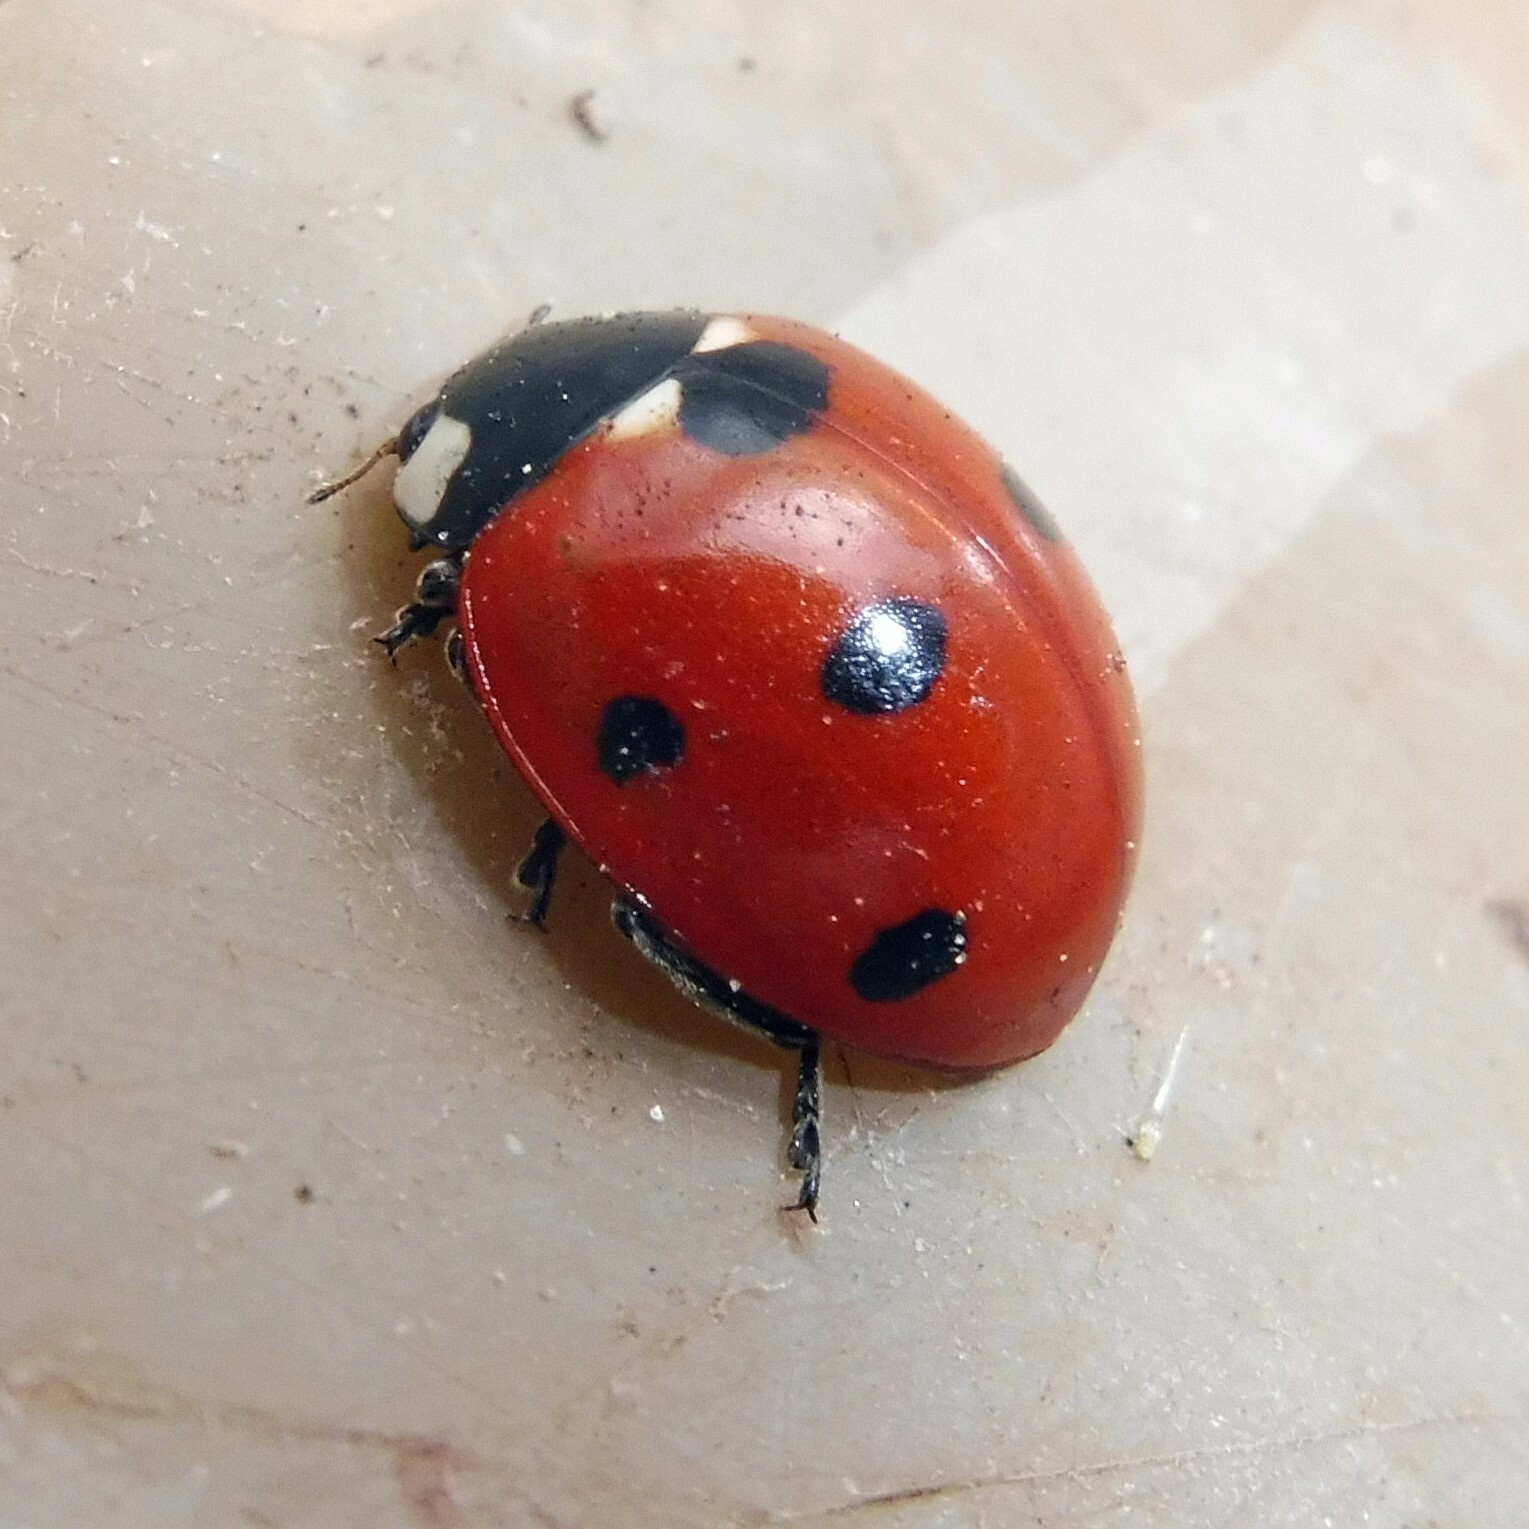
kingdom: Animalia
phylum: Arthropoda
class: Insecta
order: Coleoptera
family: Coccinellidae
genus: Coccinella
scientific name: Coccinella septempunctata
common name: Sevenspotted lady beetle
